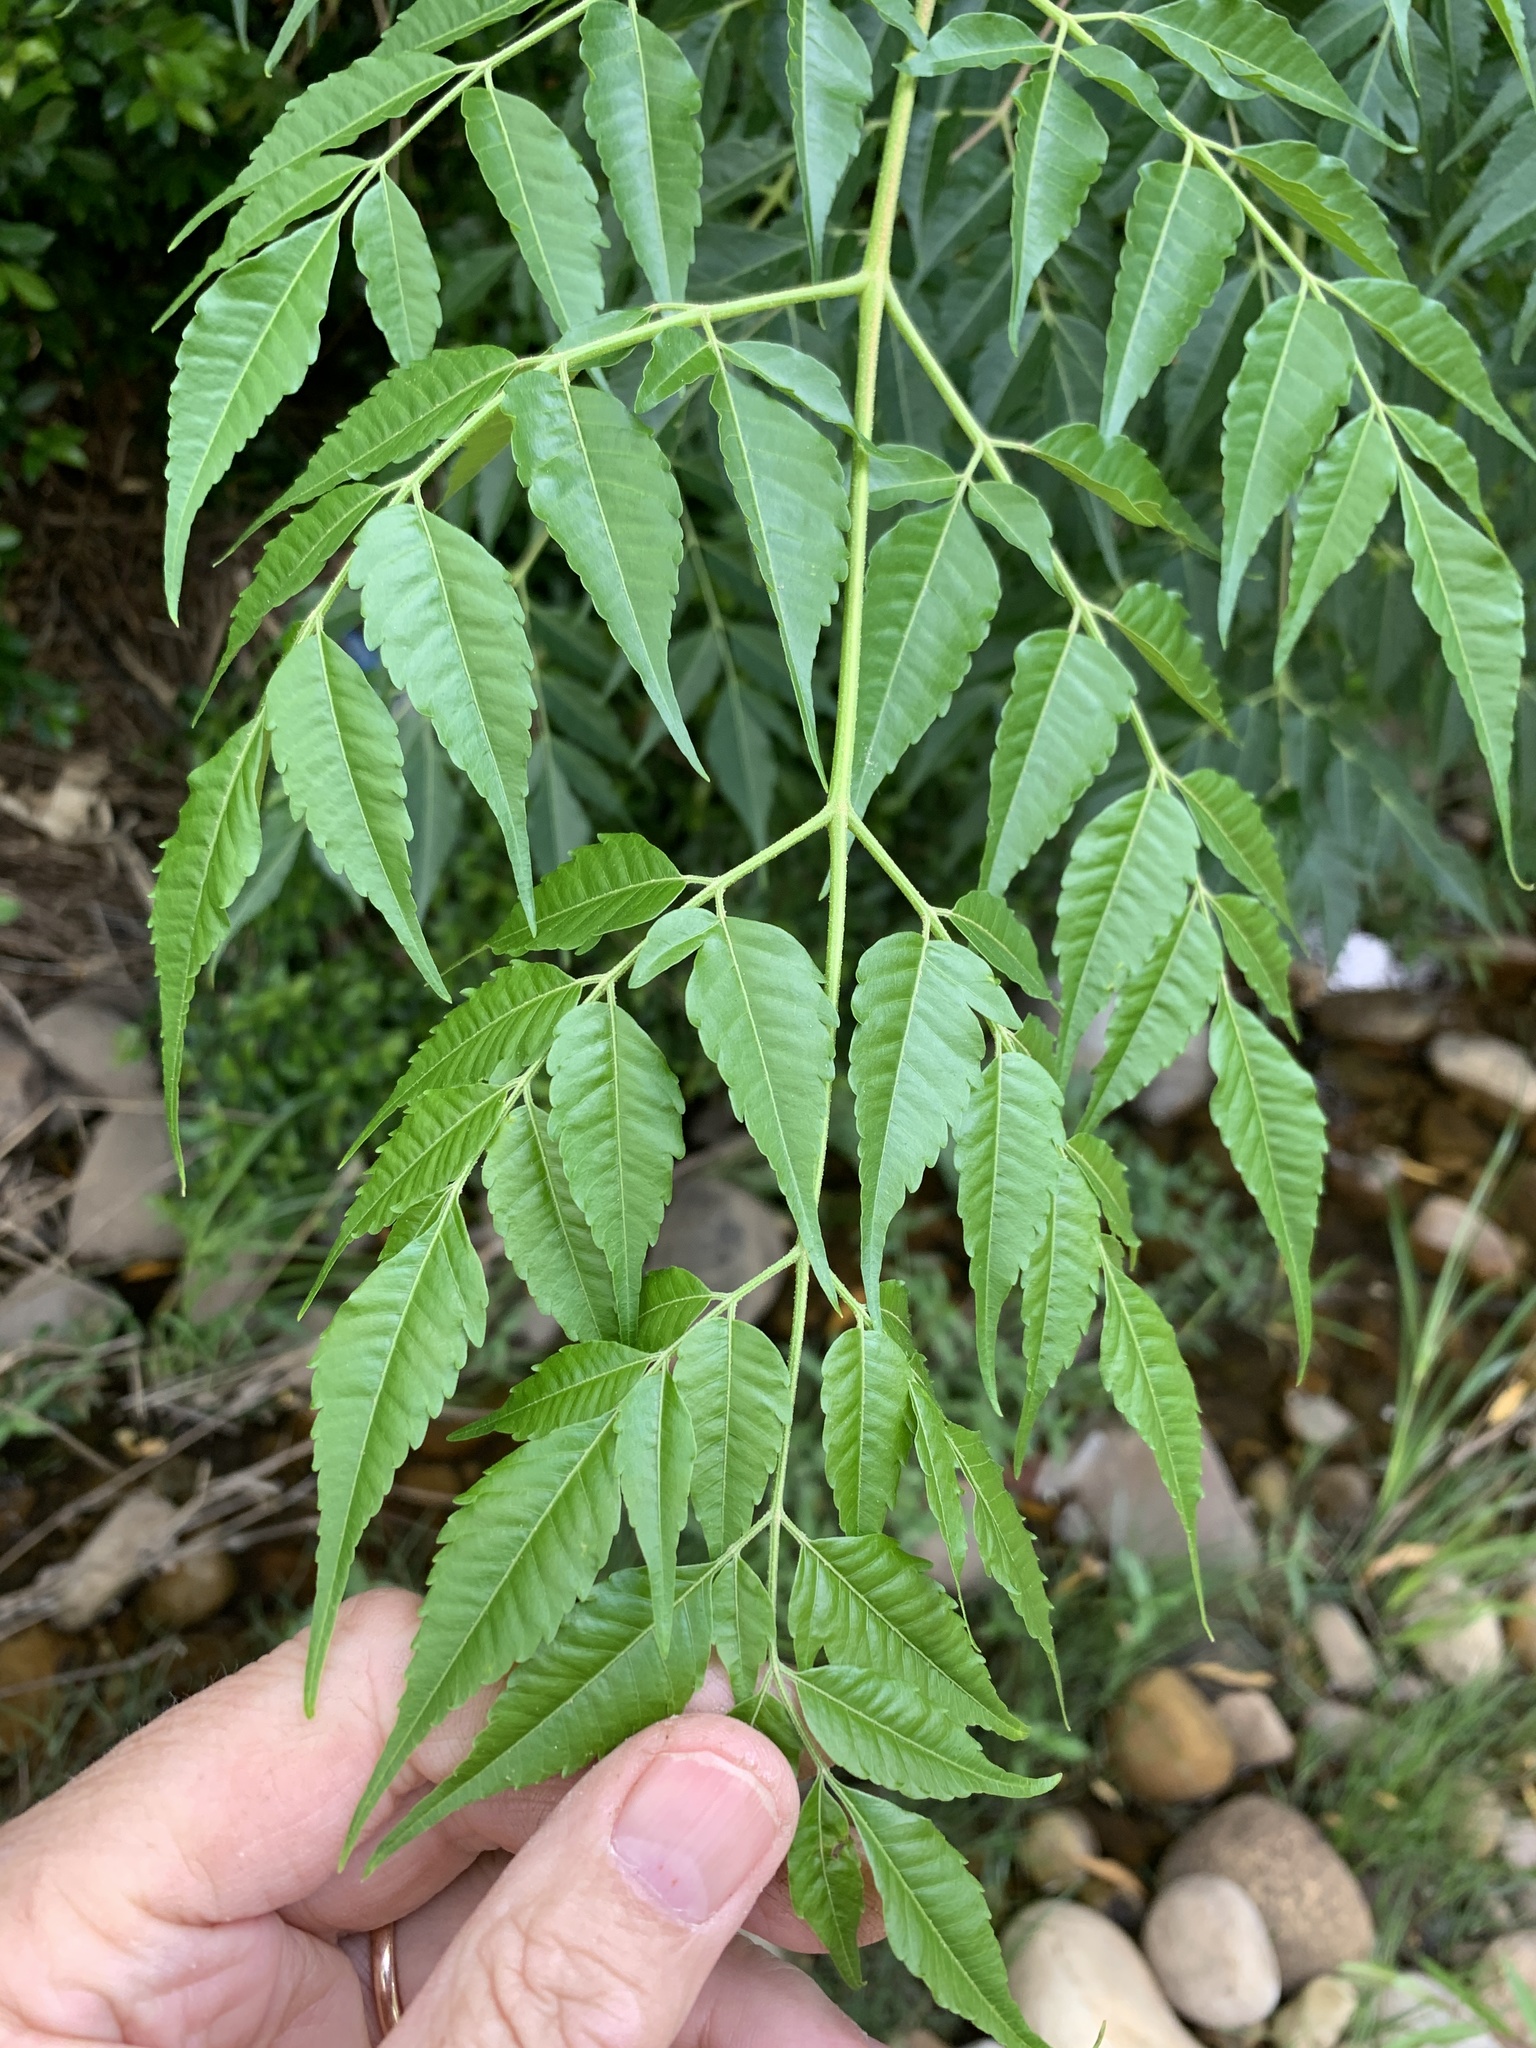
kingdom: Plantae
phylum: Tracheophyta
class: Magnoliopsida
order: Sapindales
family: Meliaceae
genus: Melia
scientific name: Melia azedarach
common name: Chinaberrytree
